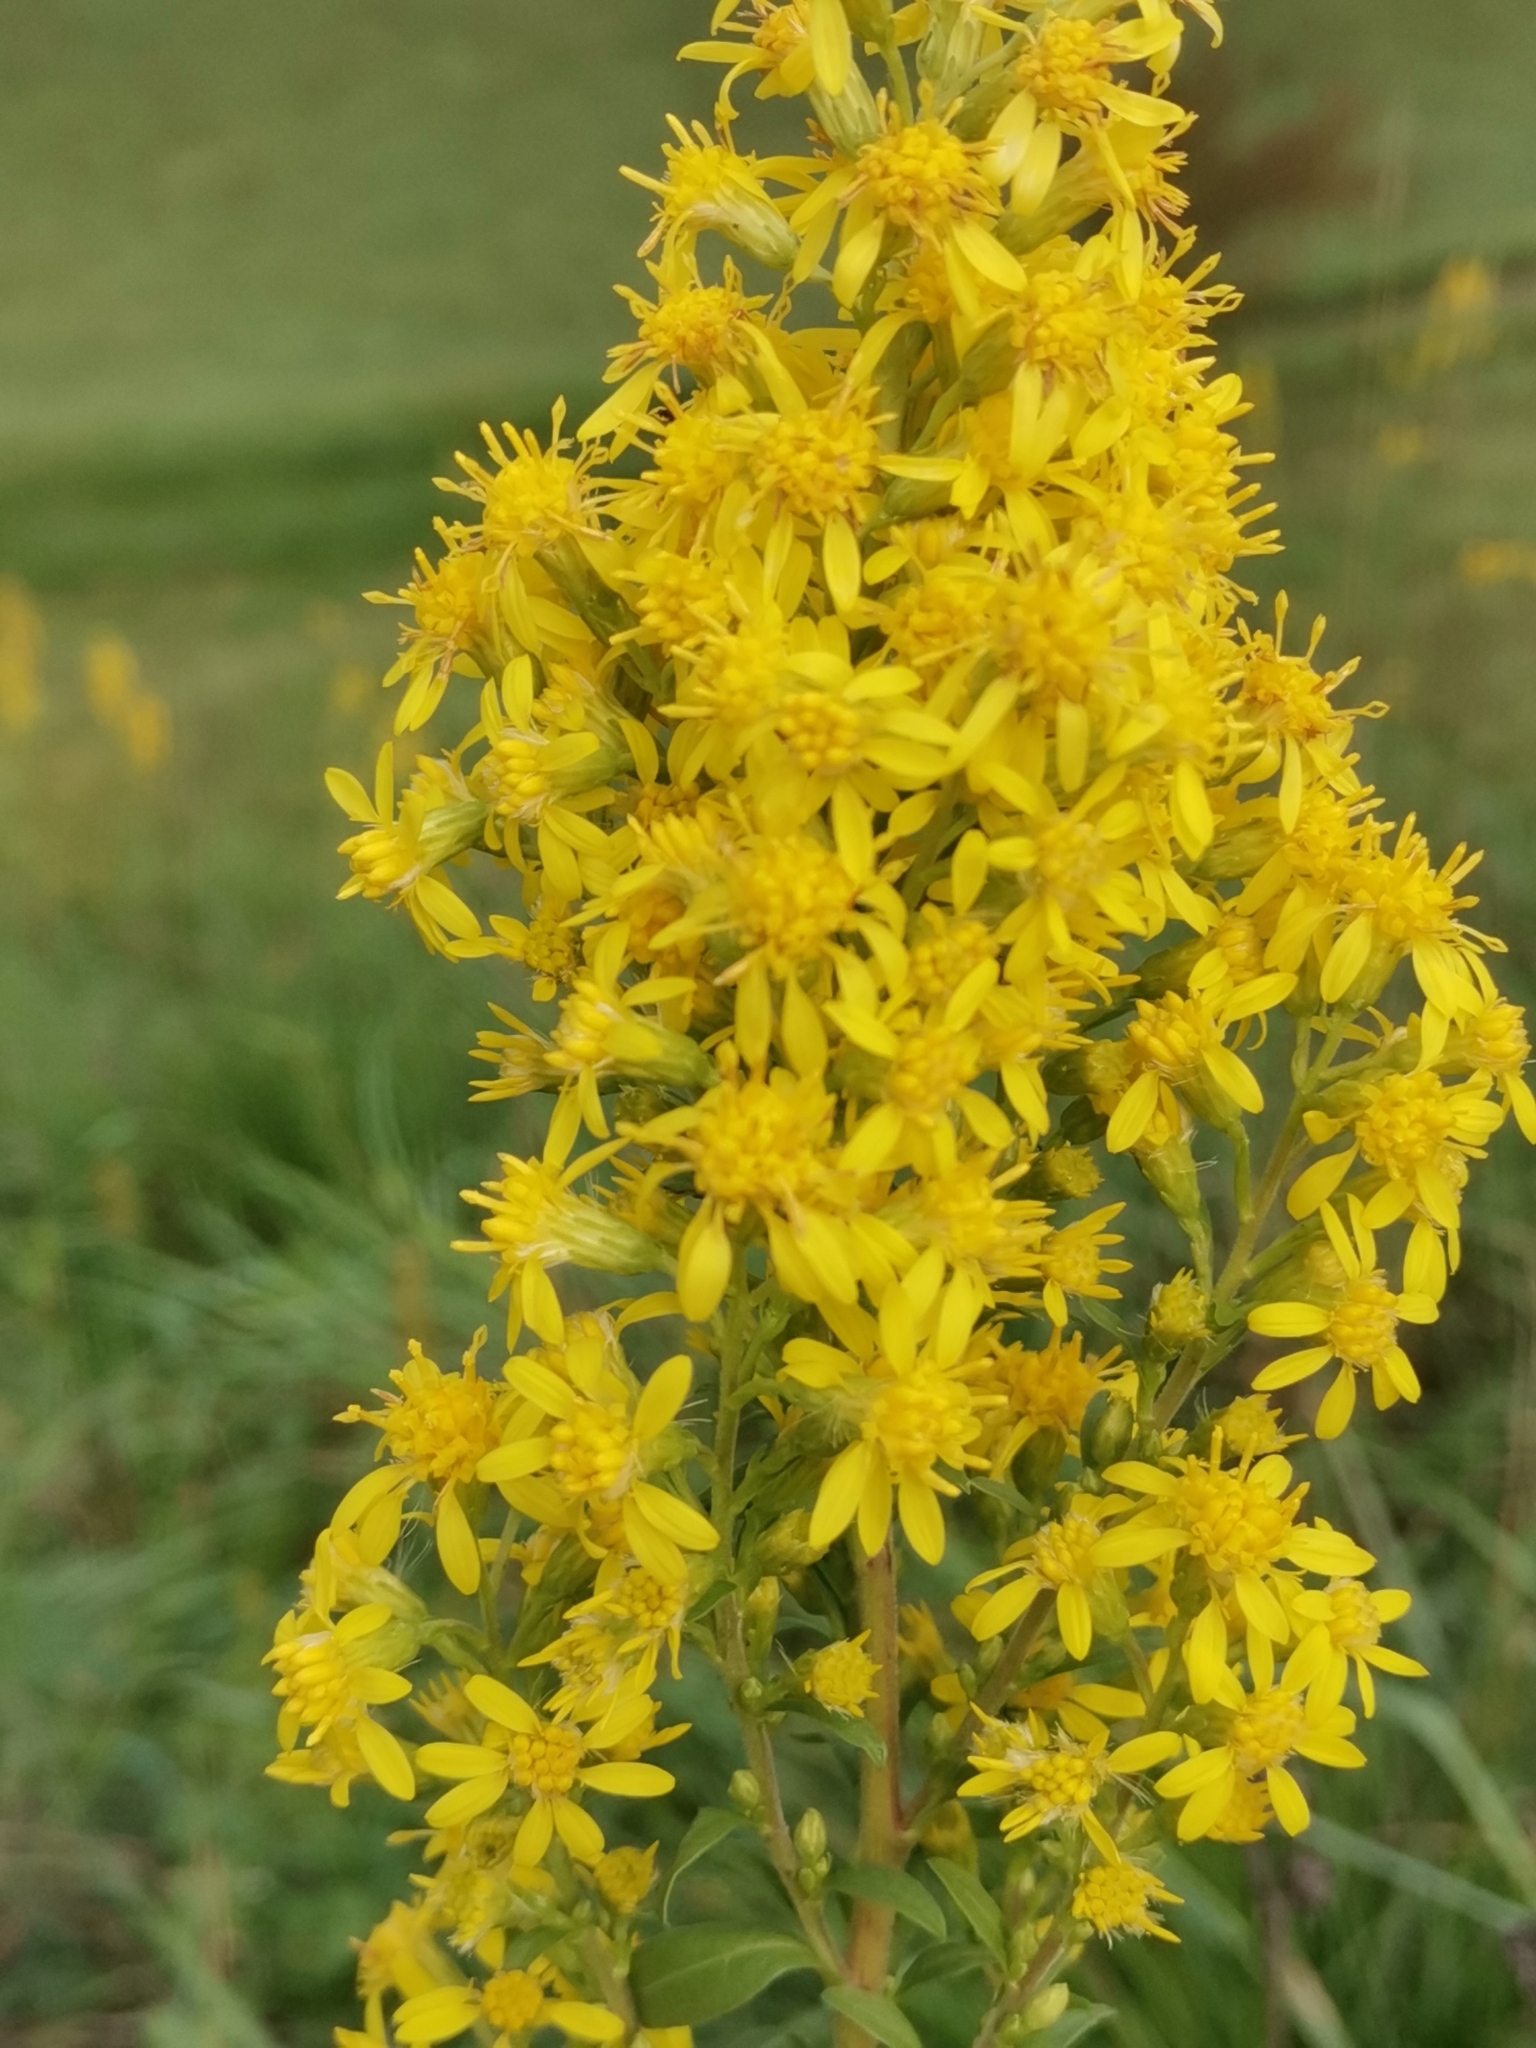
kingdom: Plantae
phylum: Tracheophyta
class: Magnoliopsida
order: Asterales
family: Asteraceae
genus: Solidago
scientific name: Solidago virgaurea
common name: Goldenrod
